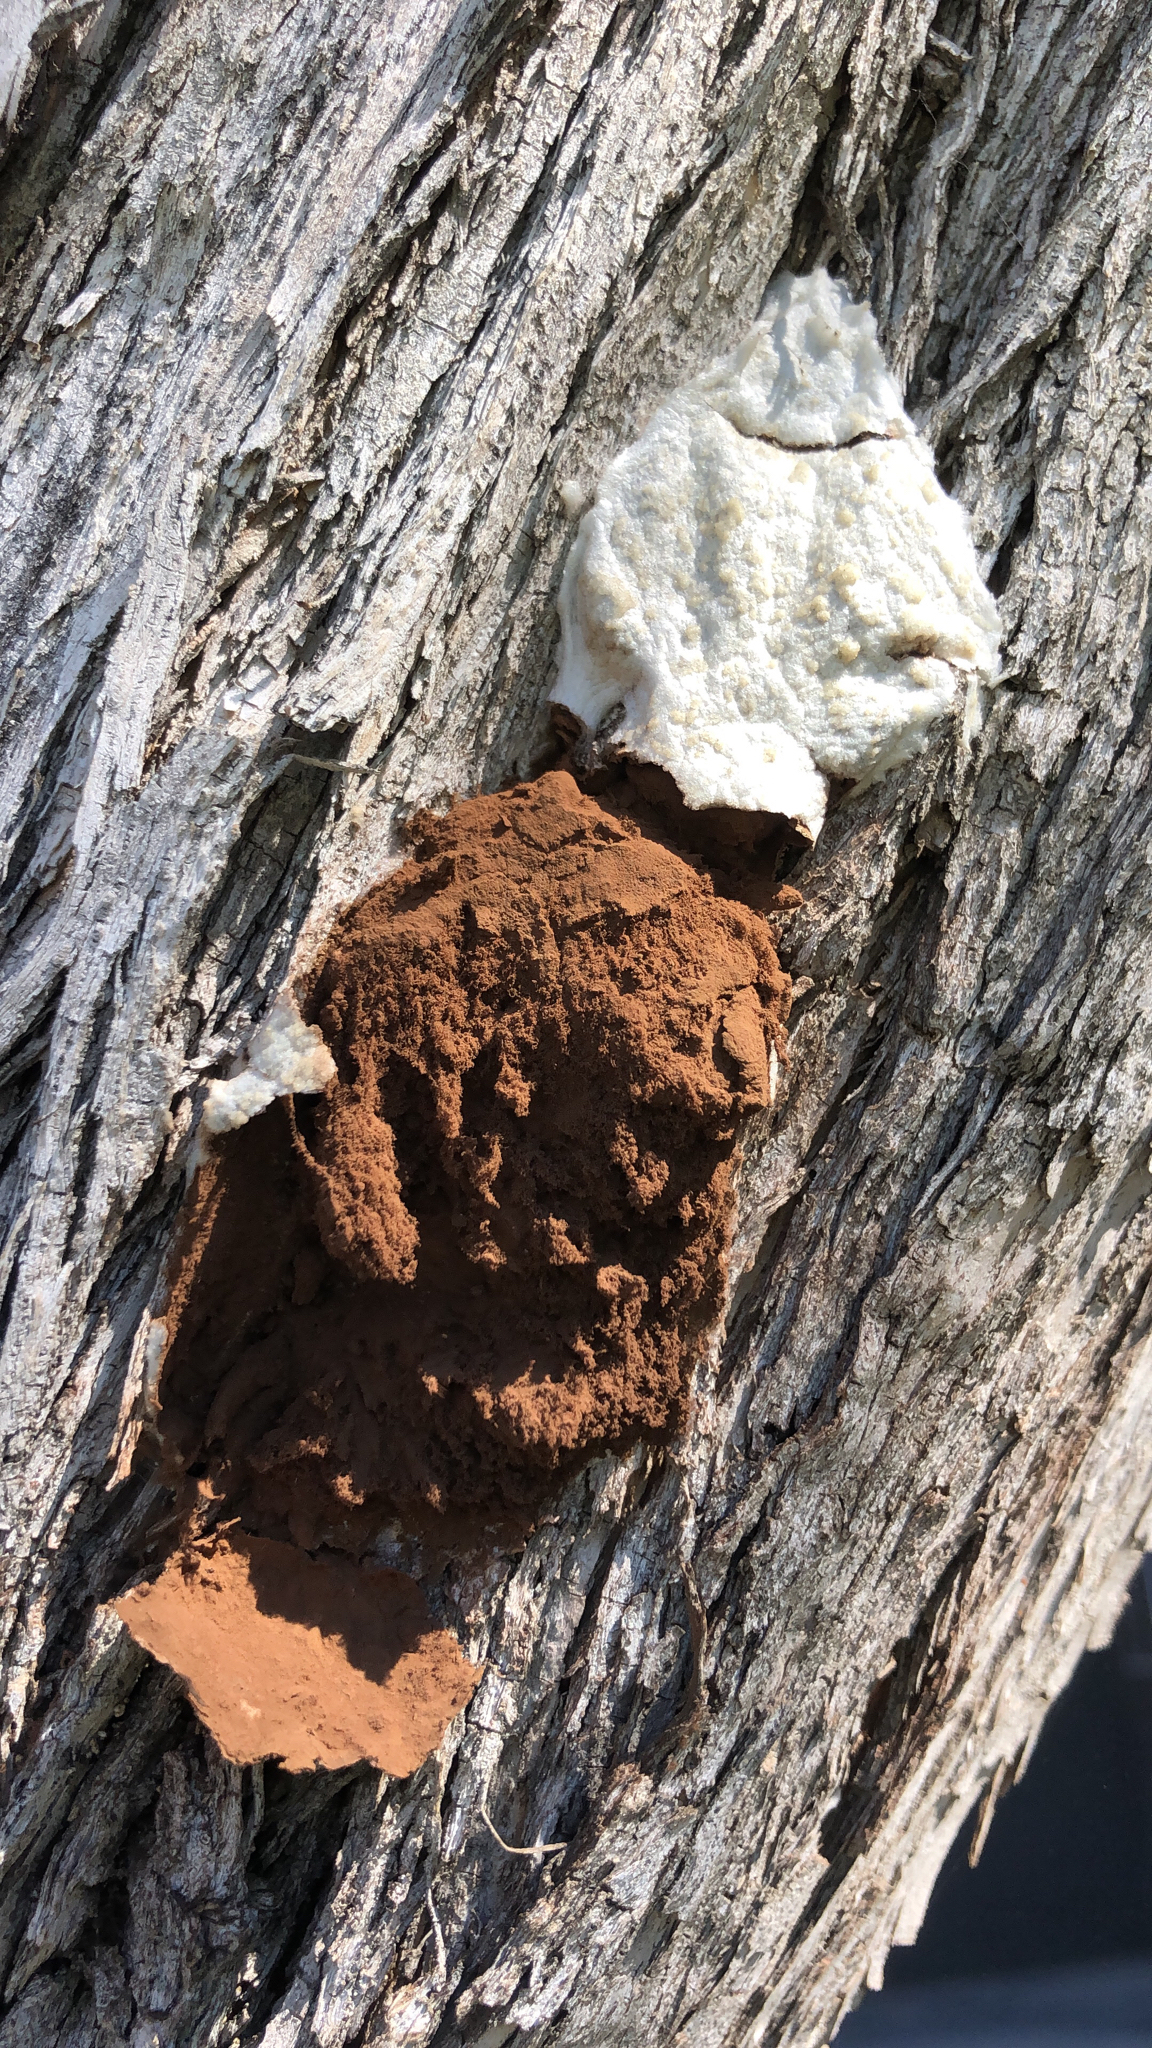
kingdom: Protozoa
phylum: Mycetozoa
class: Myxomycetes
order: Cribrariales
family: Tubiferaceae
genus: Reticularia
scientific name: Reticularia lycoperdon
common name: False puffball
